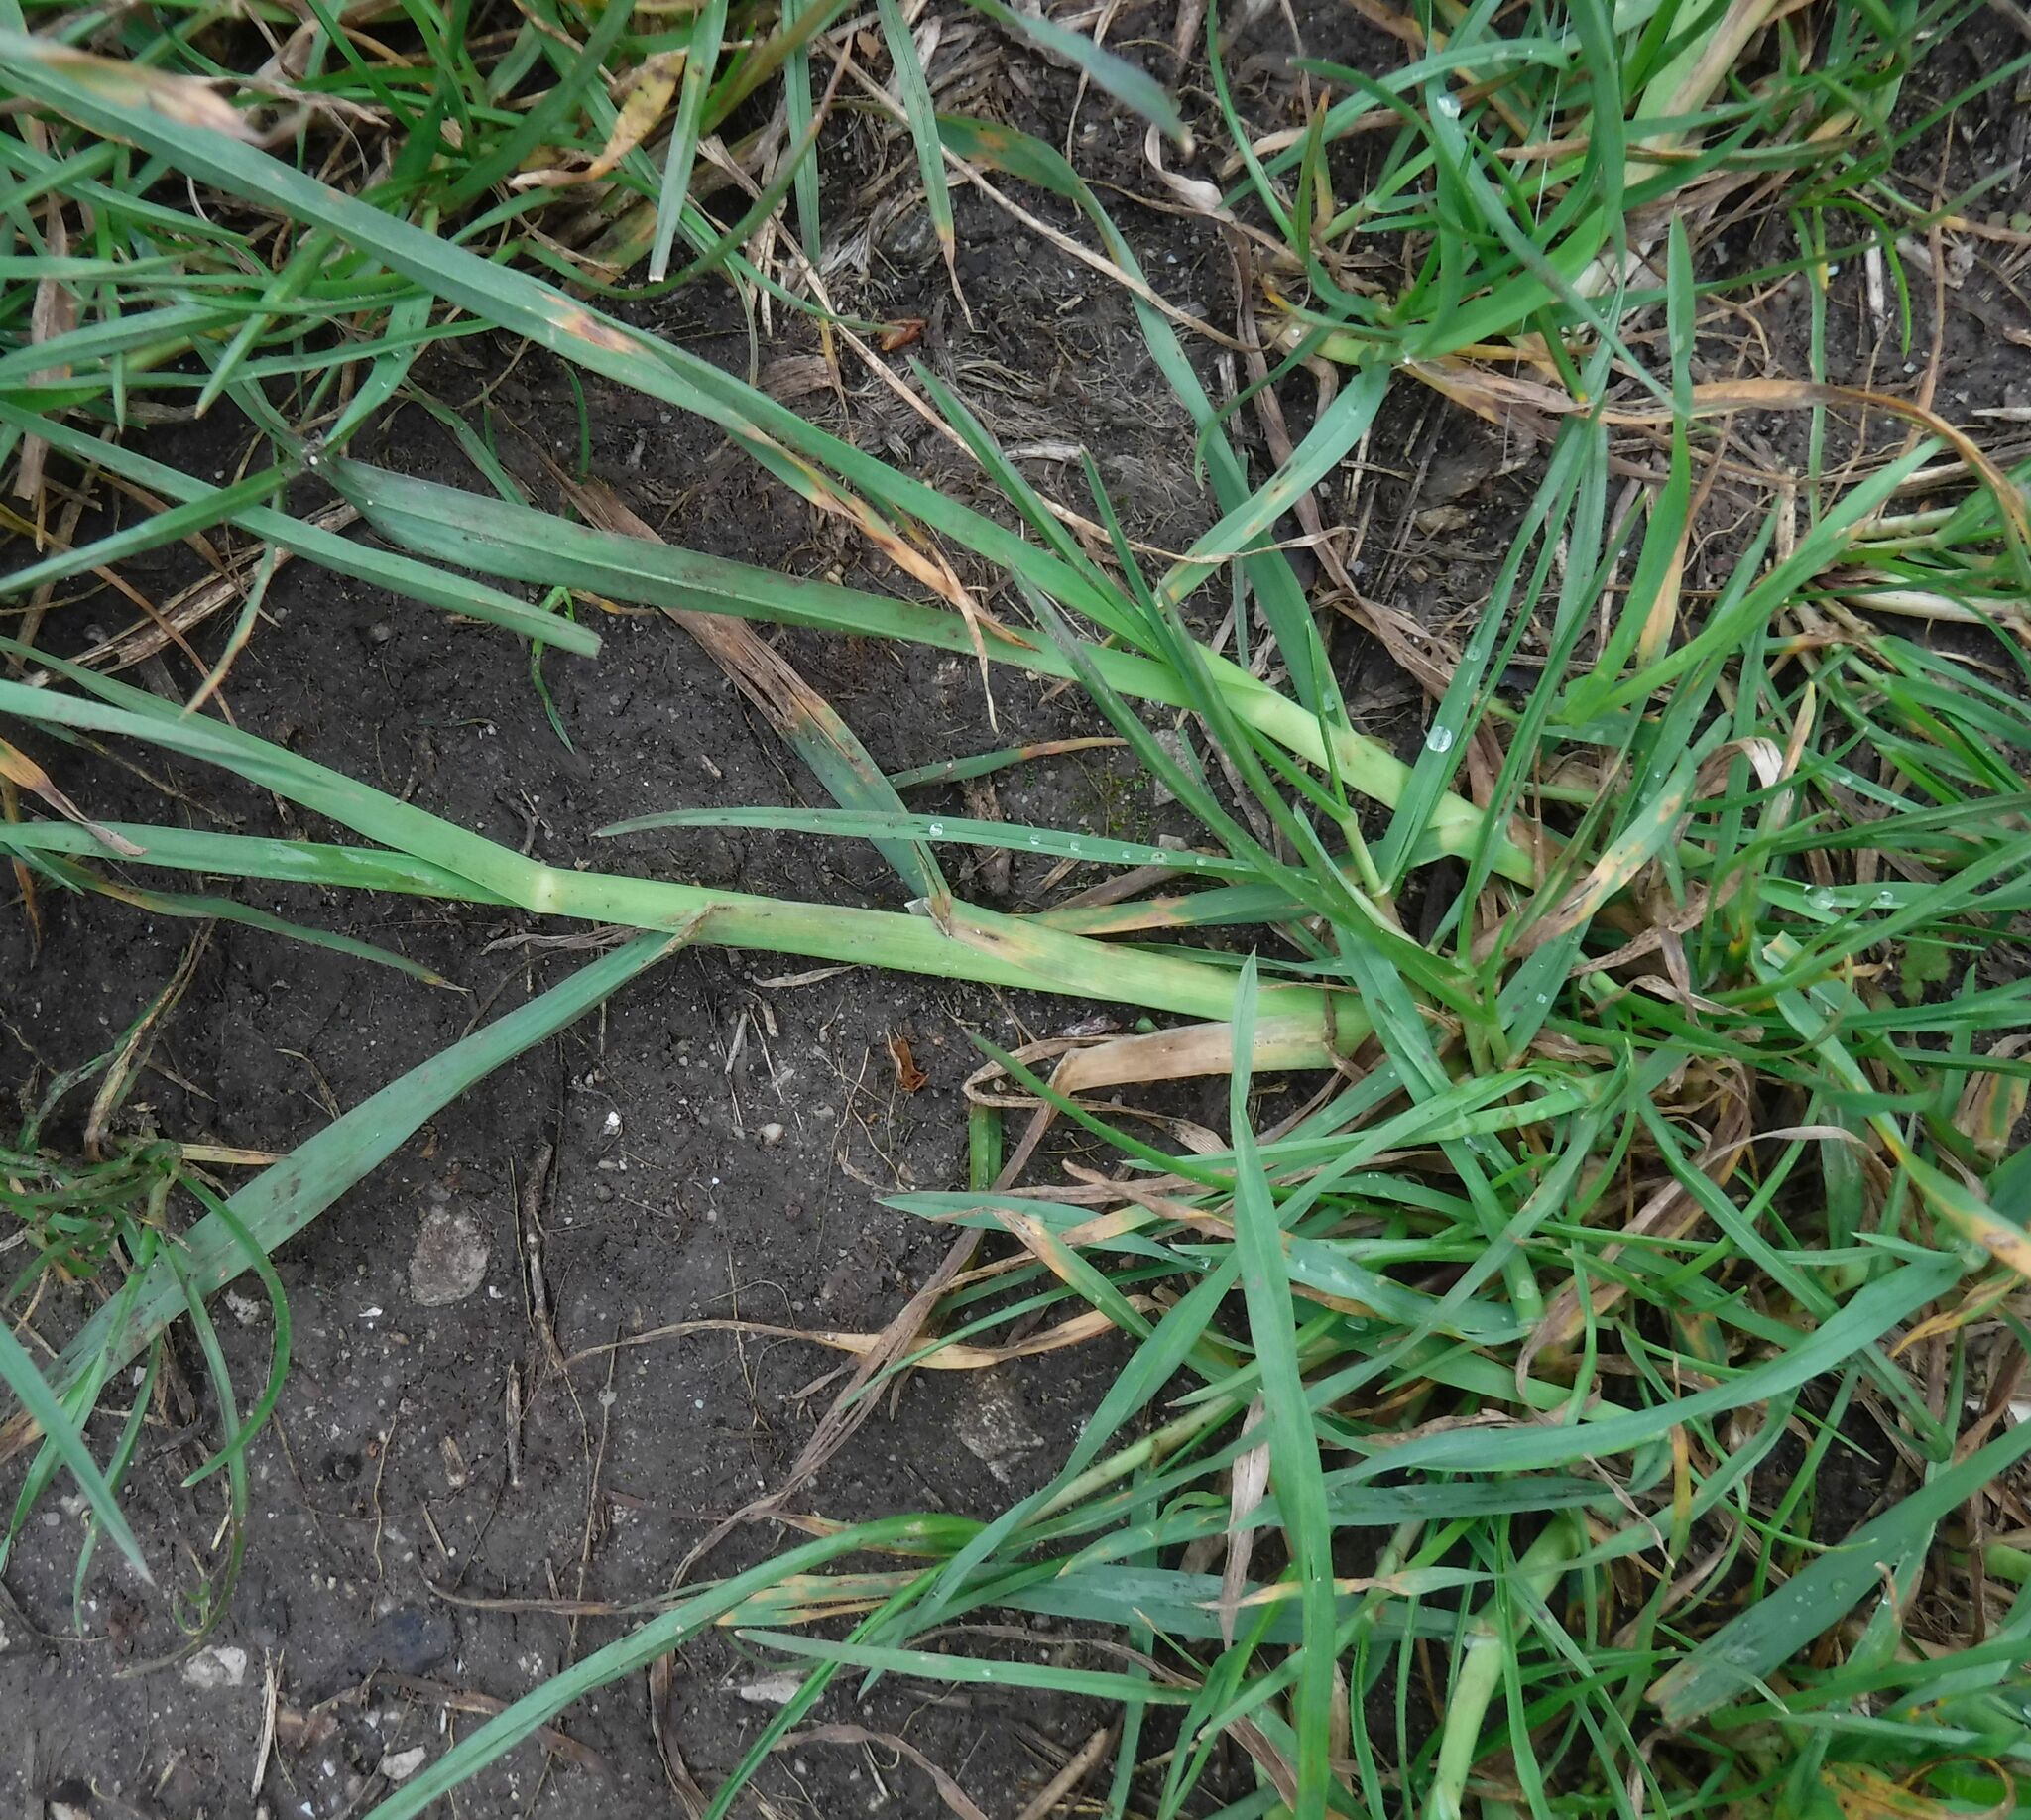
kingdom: Plantae
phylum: Tracheophyta
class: Liliopsida
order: Poales
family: Poaceae
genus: Dactylis
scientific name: Dactylis glomerata
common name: Orchardgrass
